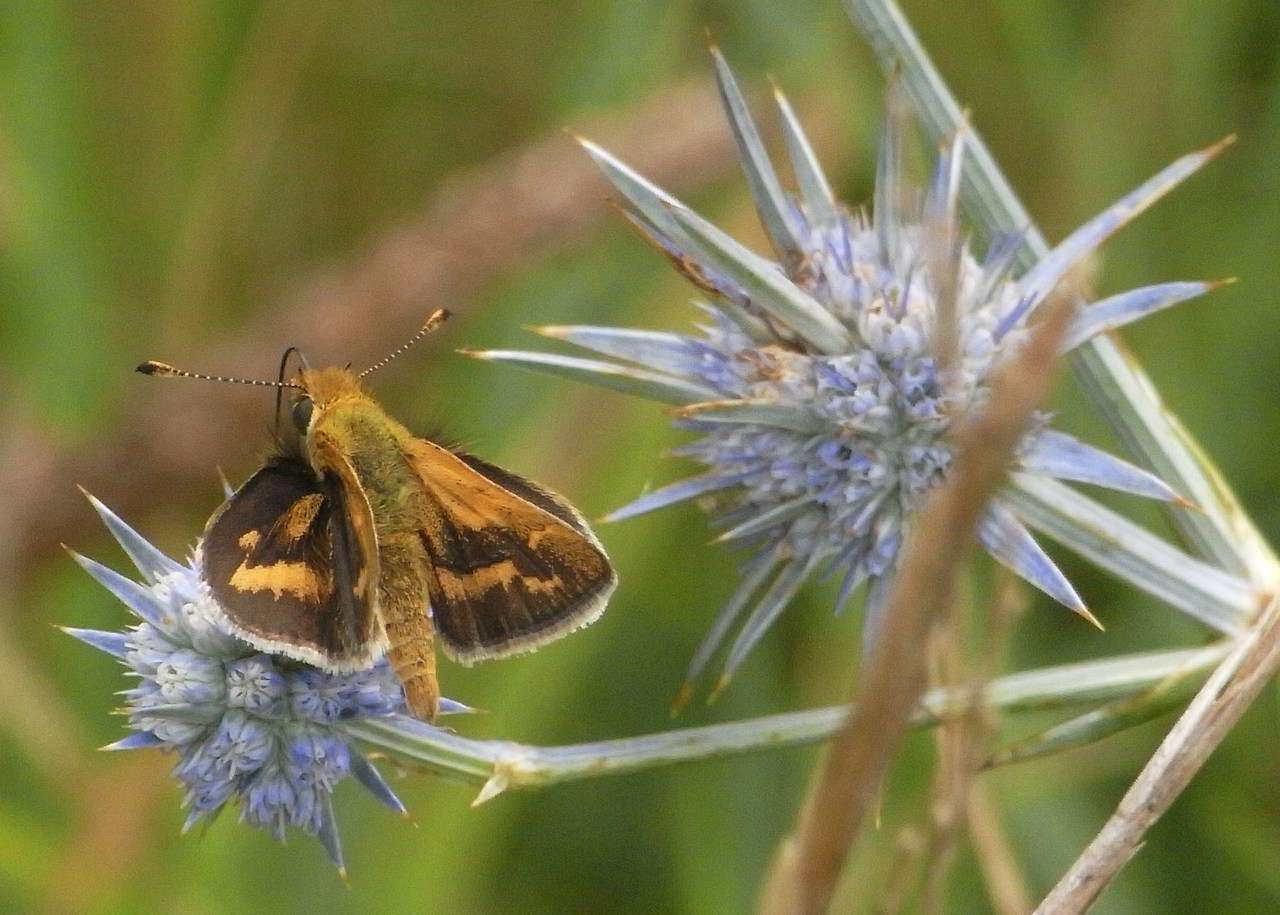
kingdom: Animalia
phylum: Arthropoda
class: Insecta
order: Lepidoptera
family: Hesperiidae
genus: Ocybadistes
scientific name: Ocybadistes walkeri
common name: Yellow-banded dart
